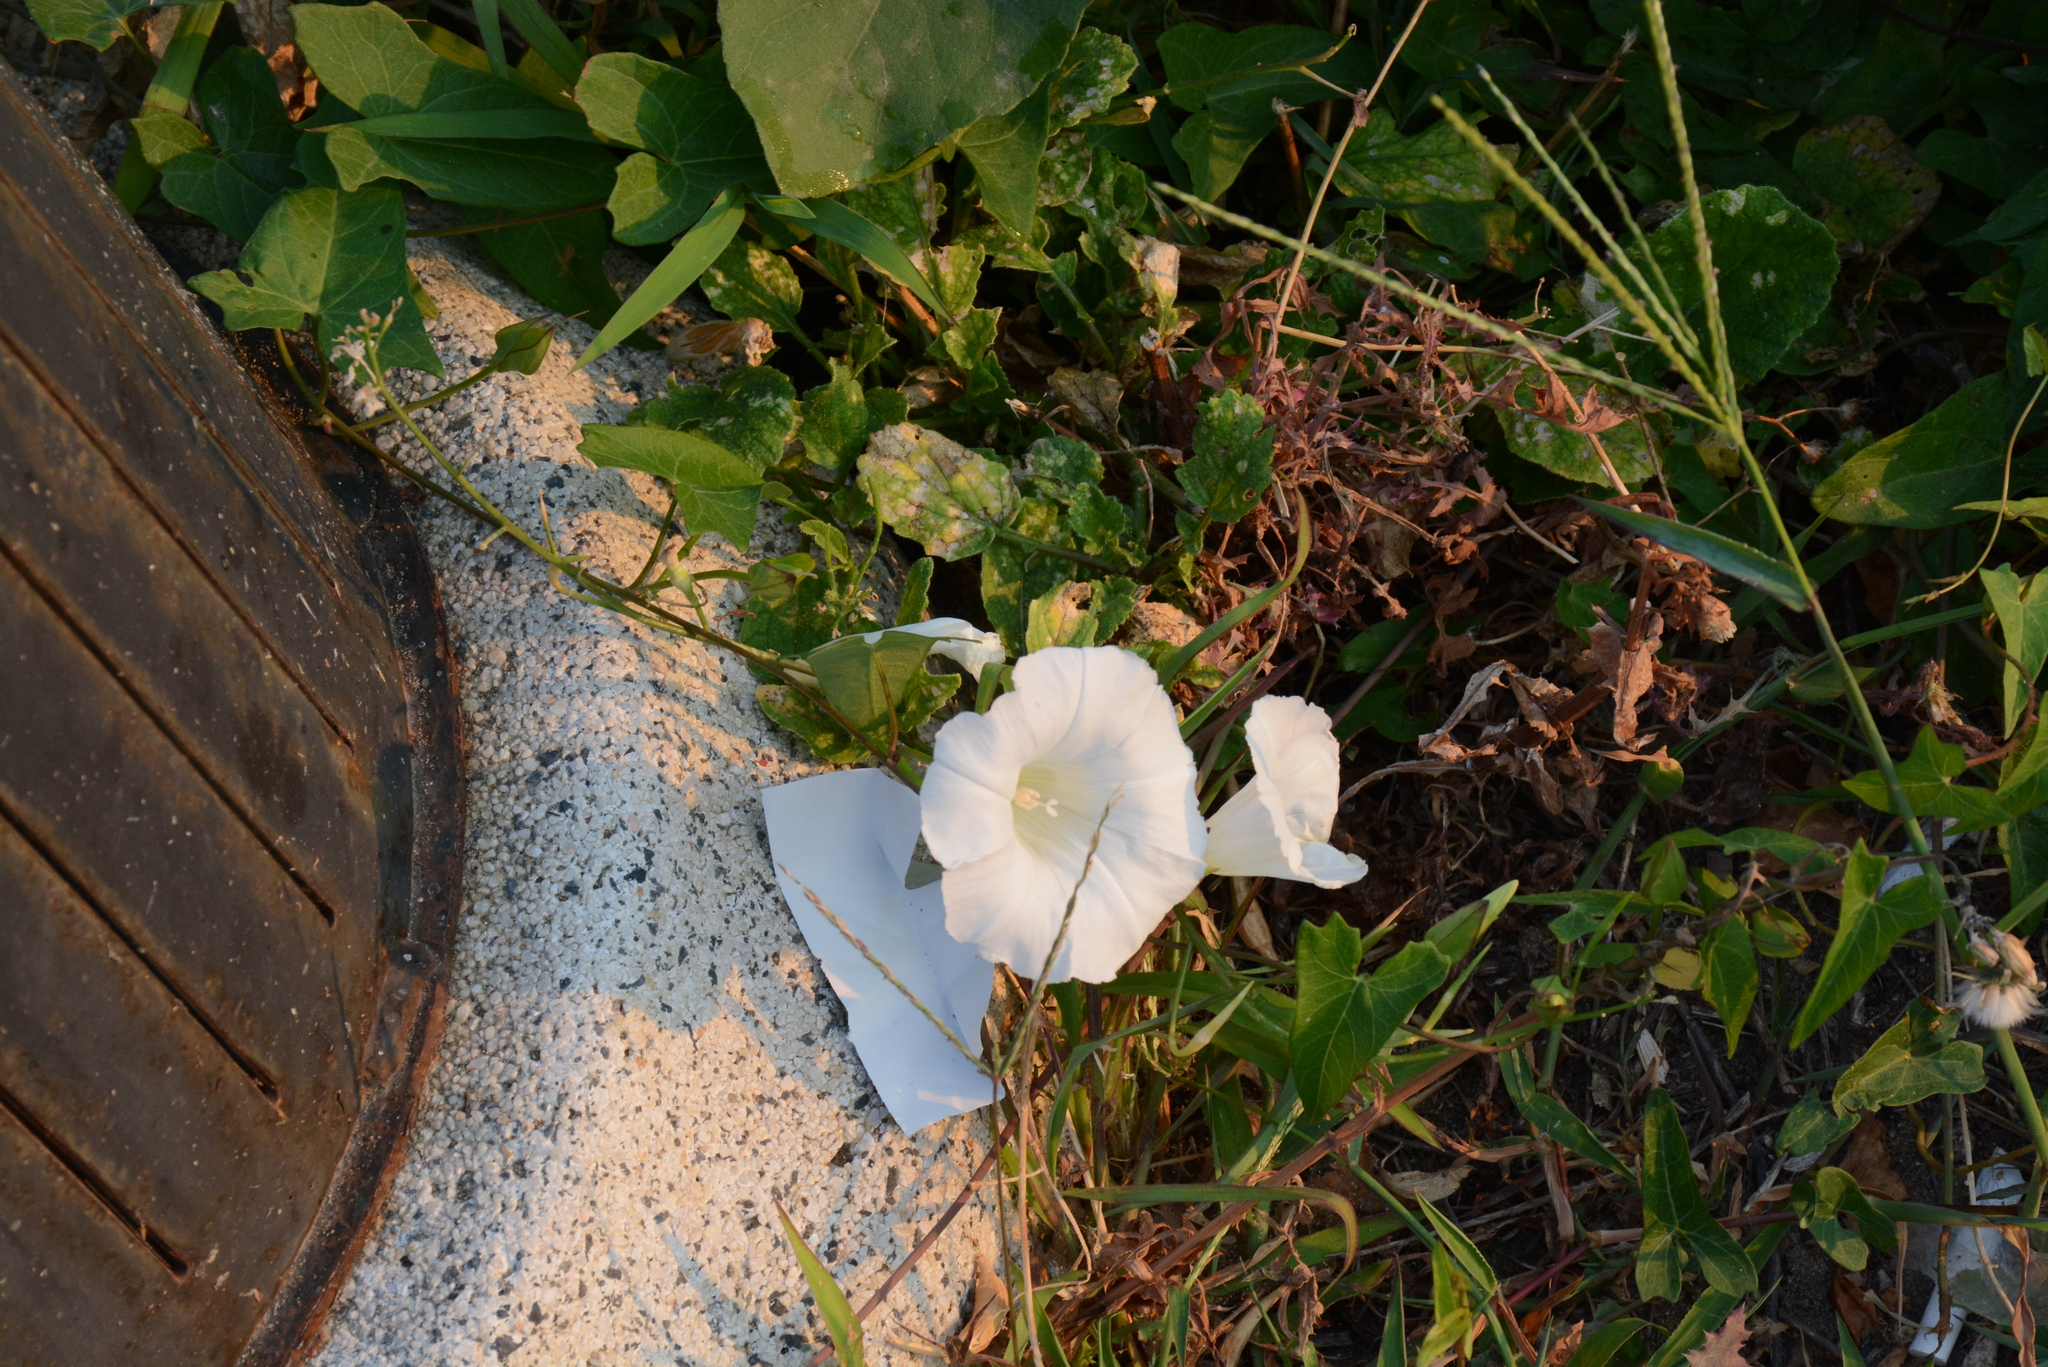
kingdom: Plantae
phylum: Tracheophyta
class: Magnoliopsida
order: Solanales
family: Convolvulaceae
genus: Calystegia
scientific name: Calystegia sepium
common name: Hedge bindweed
